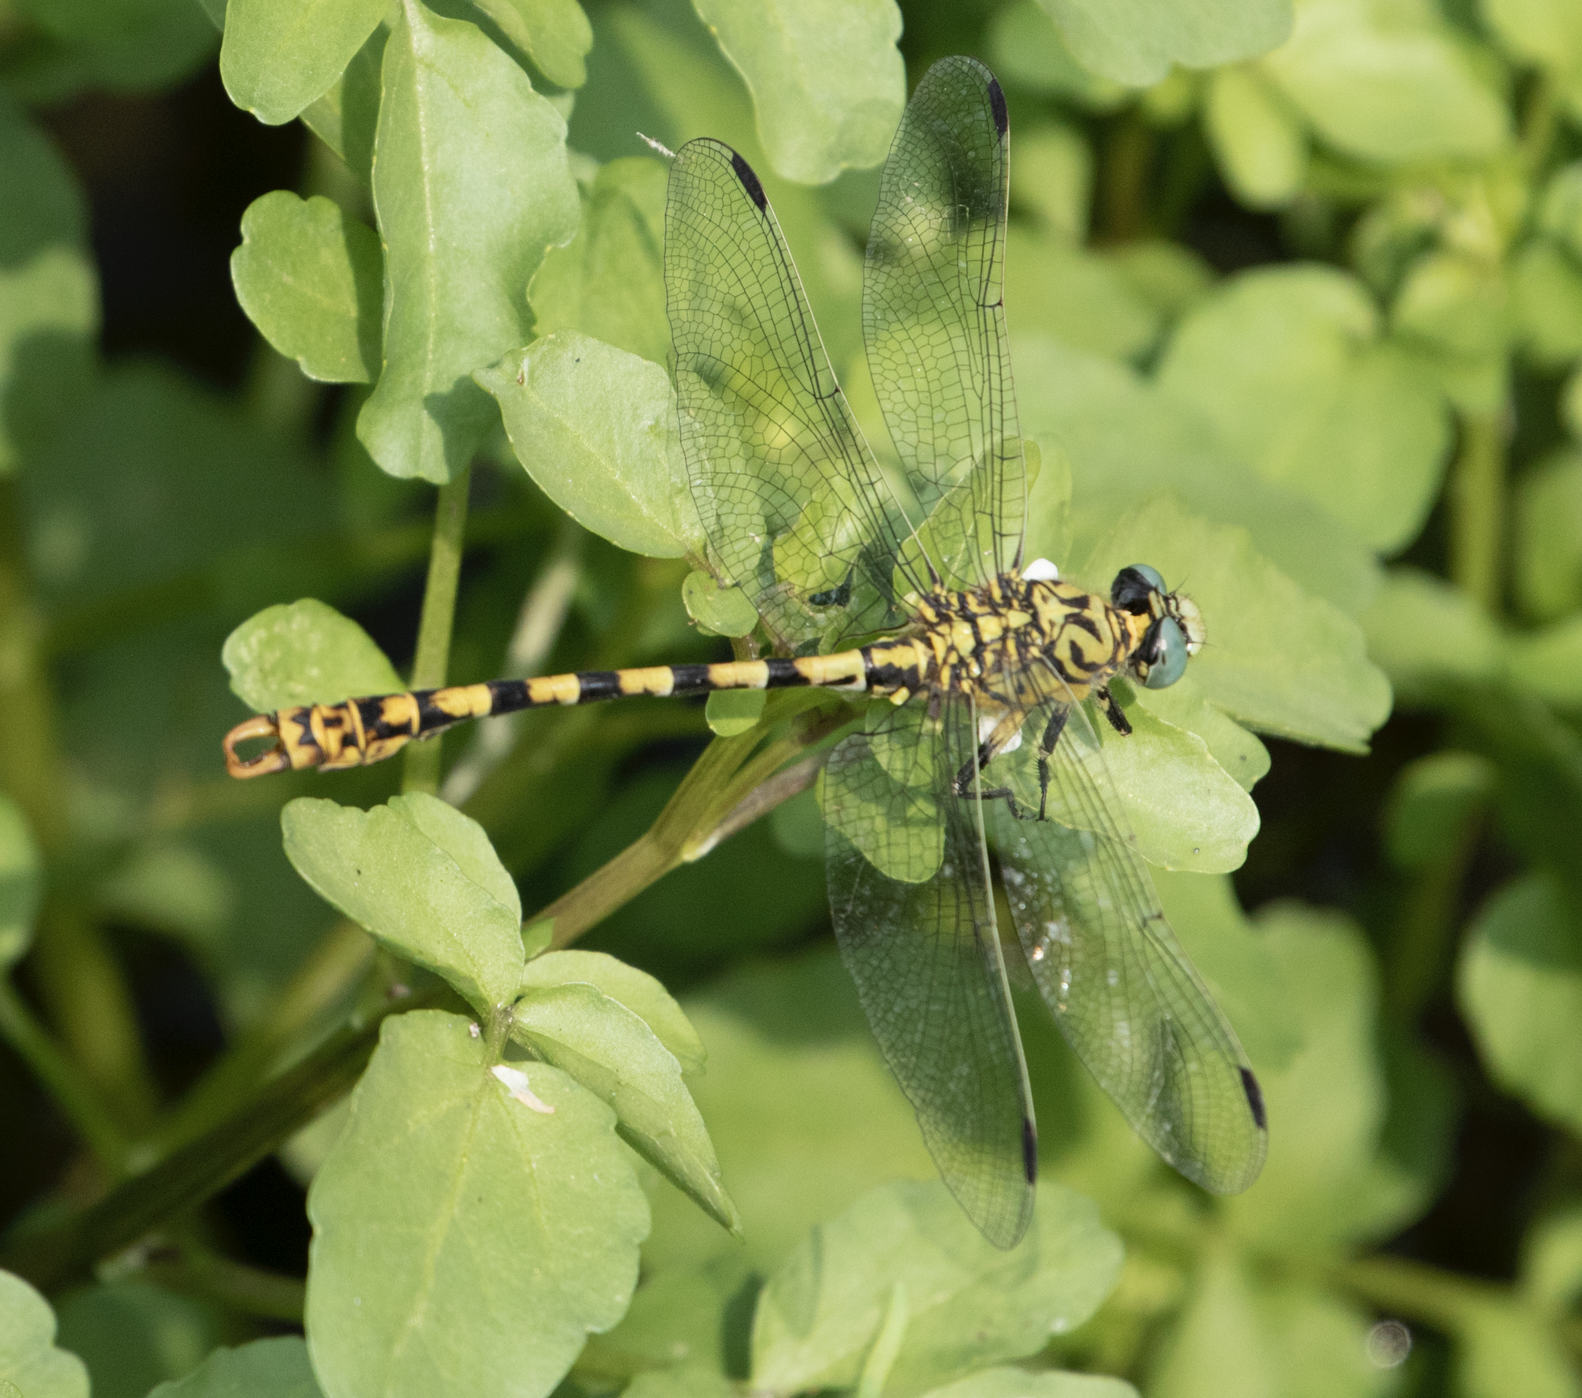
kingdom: Animalia
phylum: Arthropoda
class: Insecta
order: Odonata
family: Gomphidae
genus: Onychogomphus
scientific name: Onychogomphus forcipatus
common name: Small pincertail
